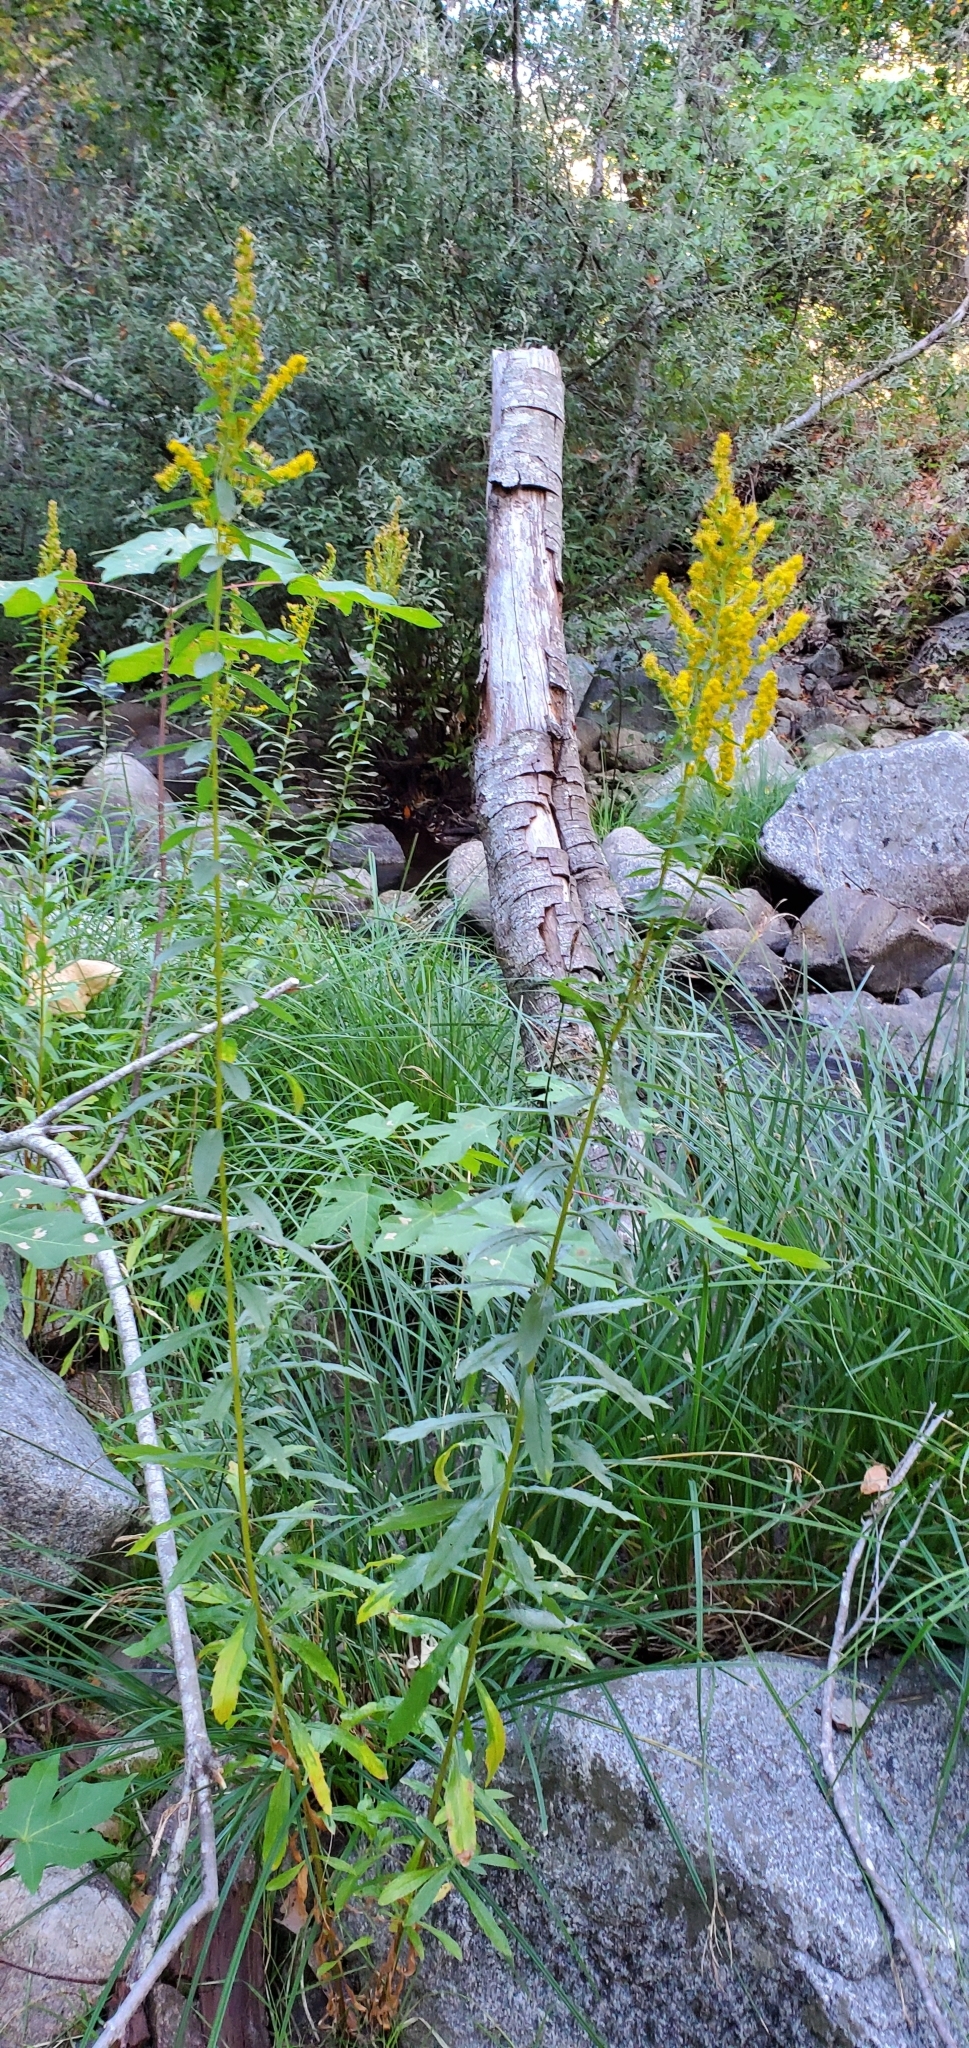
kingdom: Plantae
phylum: Tracheophyta
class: Magnoliopsida
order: Asterales
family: Asteraceae
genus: Solidago
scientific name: Solidago elongata
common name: Cascade canada goldenrod
